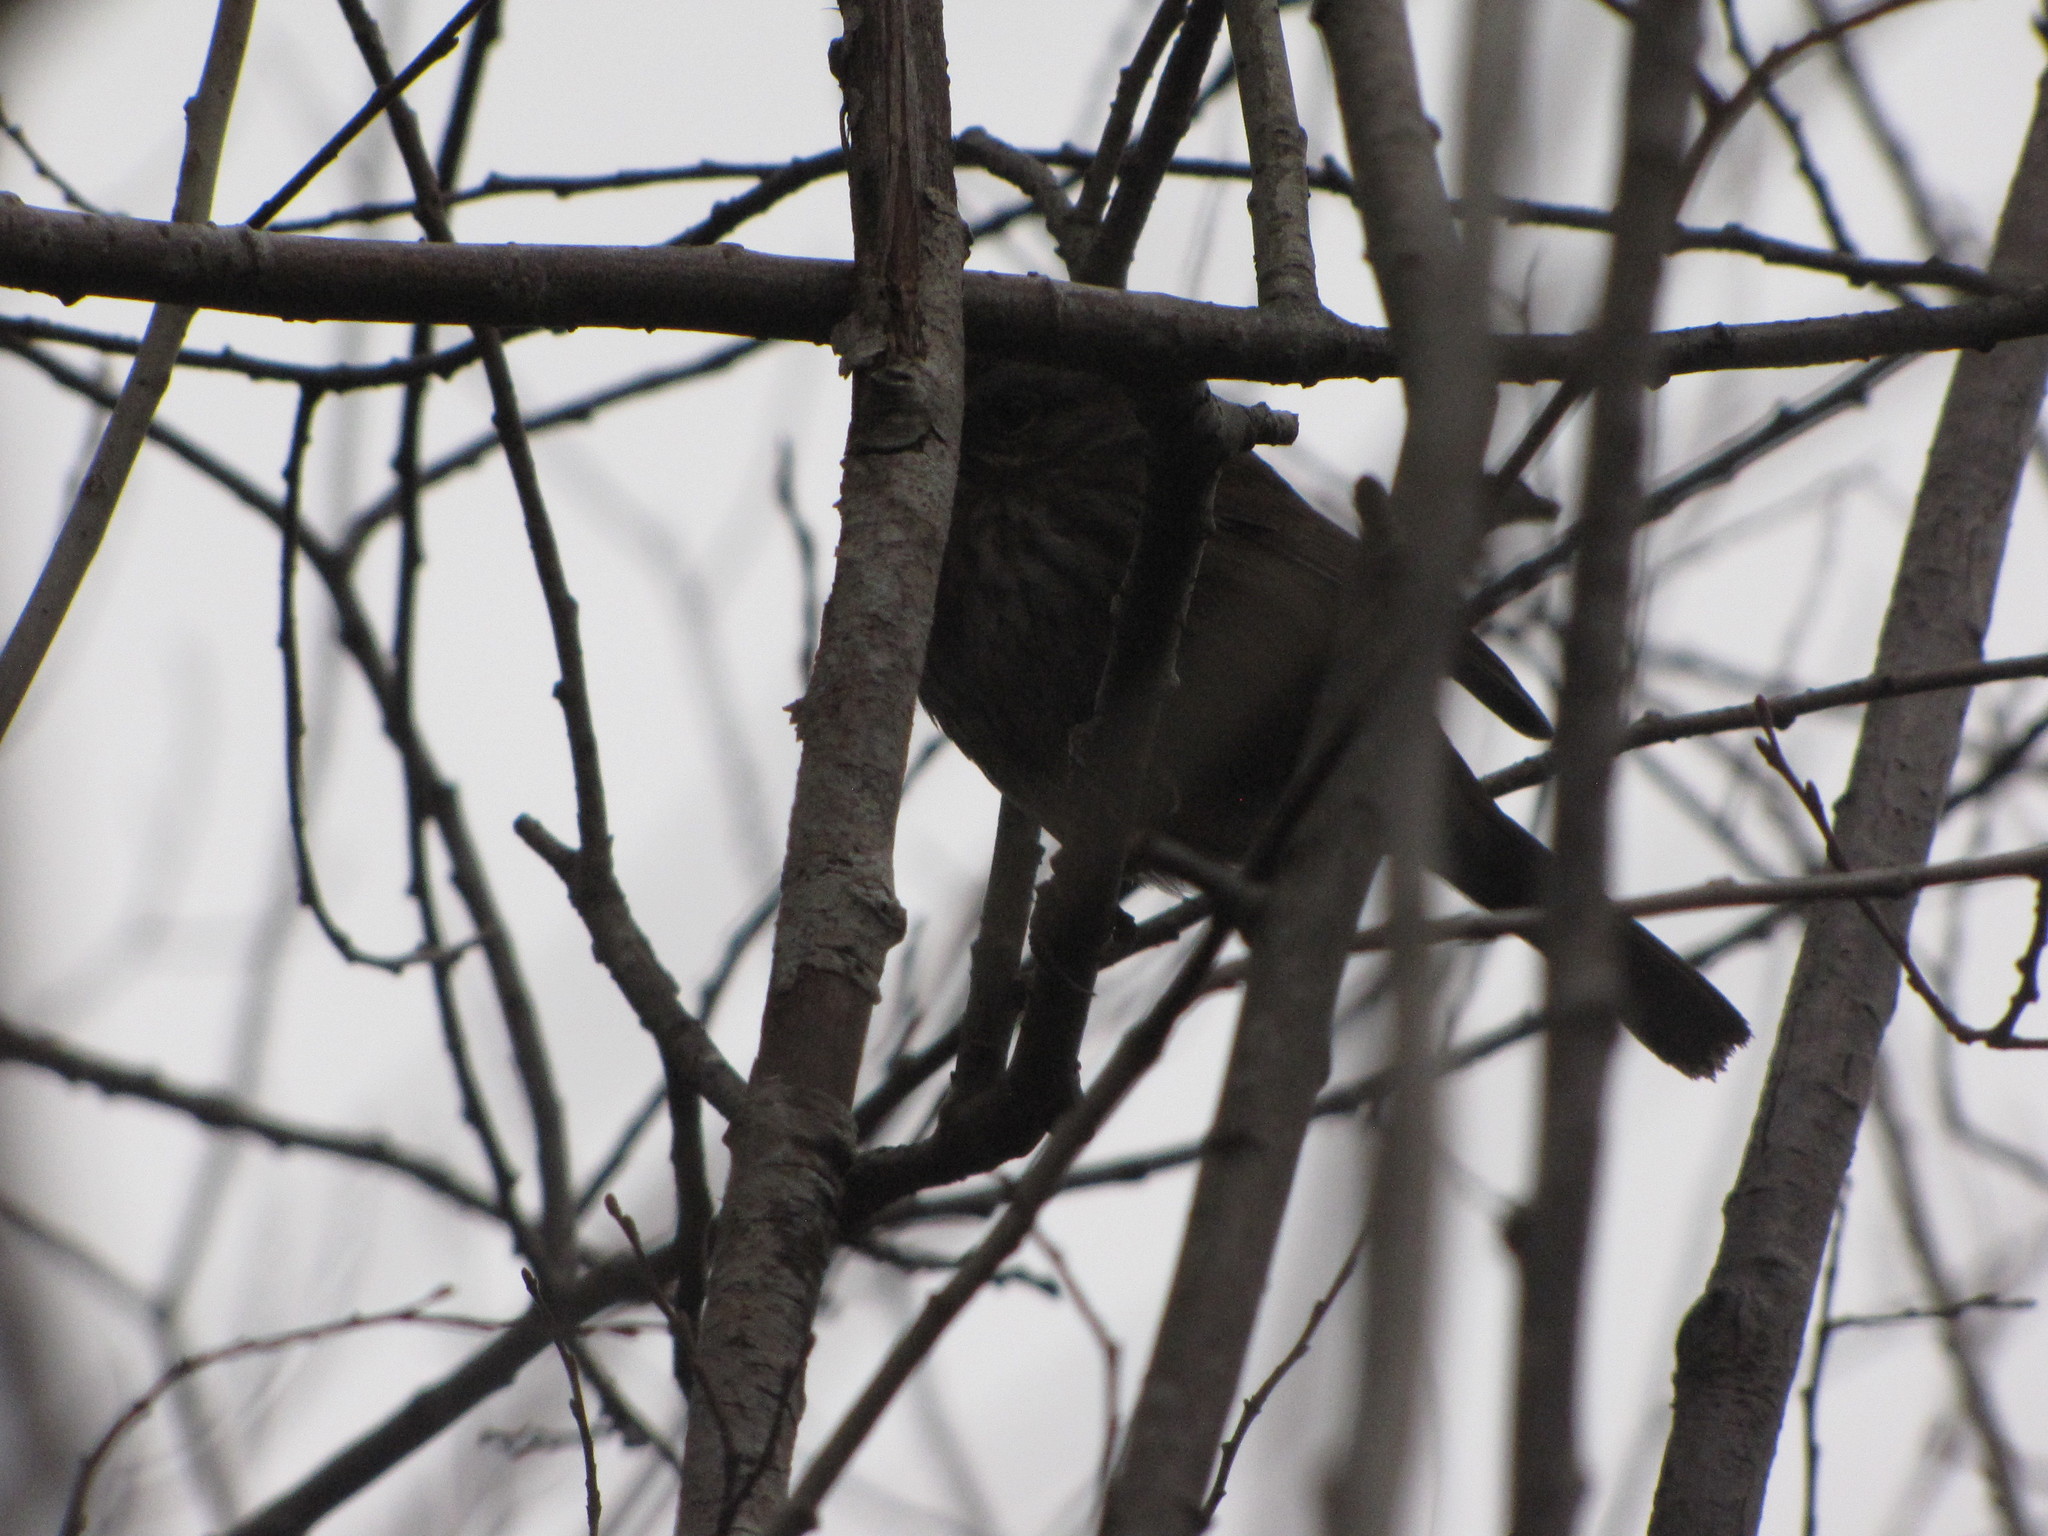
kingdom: Animalia
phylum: Chordata
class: Aves
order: Passeriformes
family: Passerellidae
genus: Melospiza
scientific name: Melospiza melodia
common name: Song sparrow
